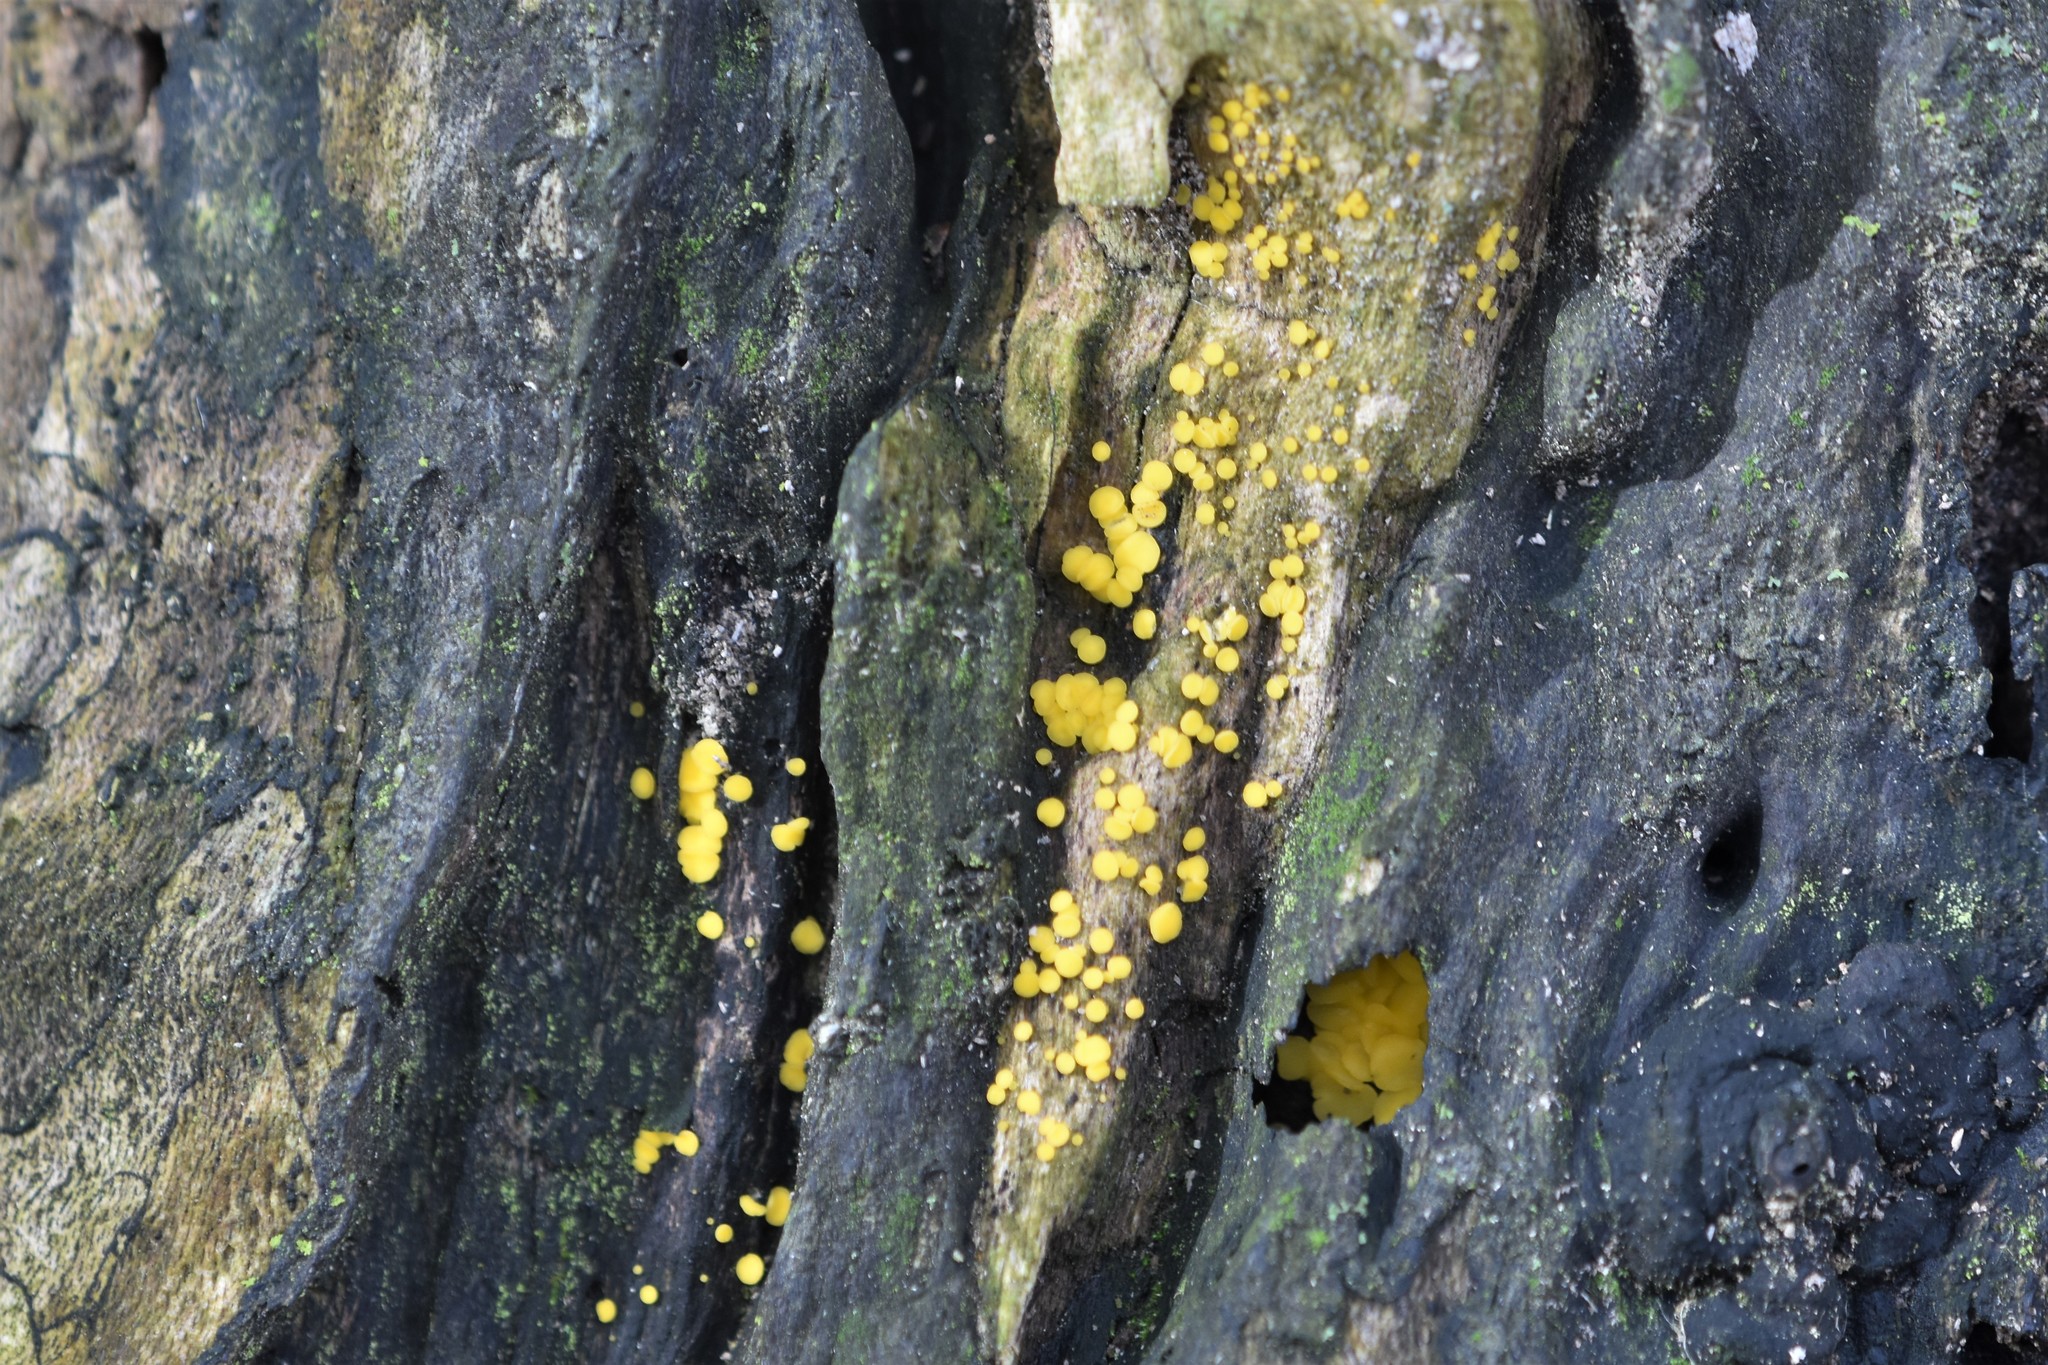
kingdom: Fungi
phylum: Ascomycota
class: Leotiomycetes
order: Helotiales
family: Pezizellaceae
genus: Calycina
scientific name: Calycina citrina
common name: Yellow fairy cups
